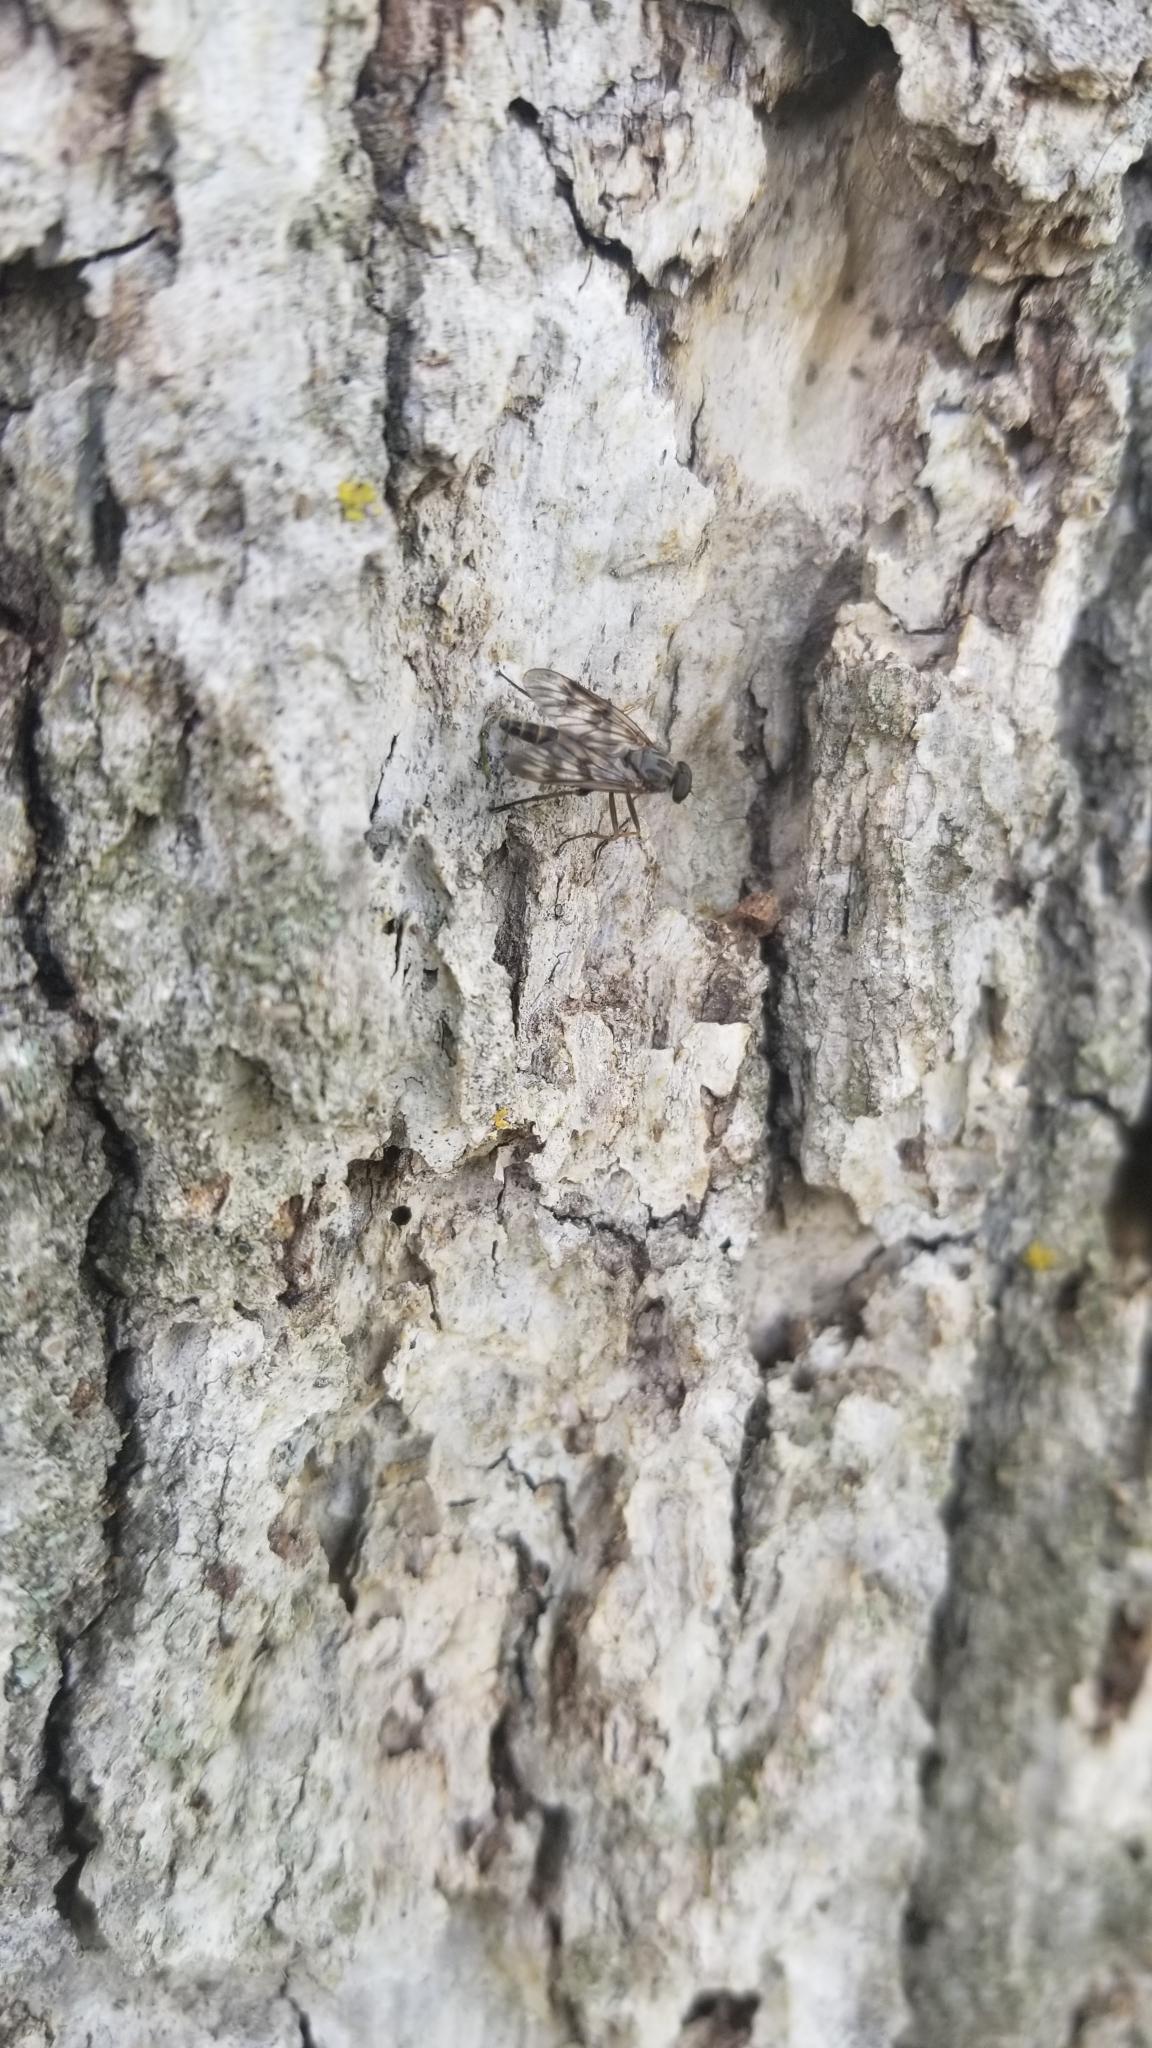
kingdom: Animalia
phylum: Arthropoda
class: Insecta
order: Diptera
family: Rhagionidae
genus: Rhagio
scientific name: Rhagio mystaceus
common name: Common snipe fly
